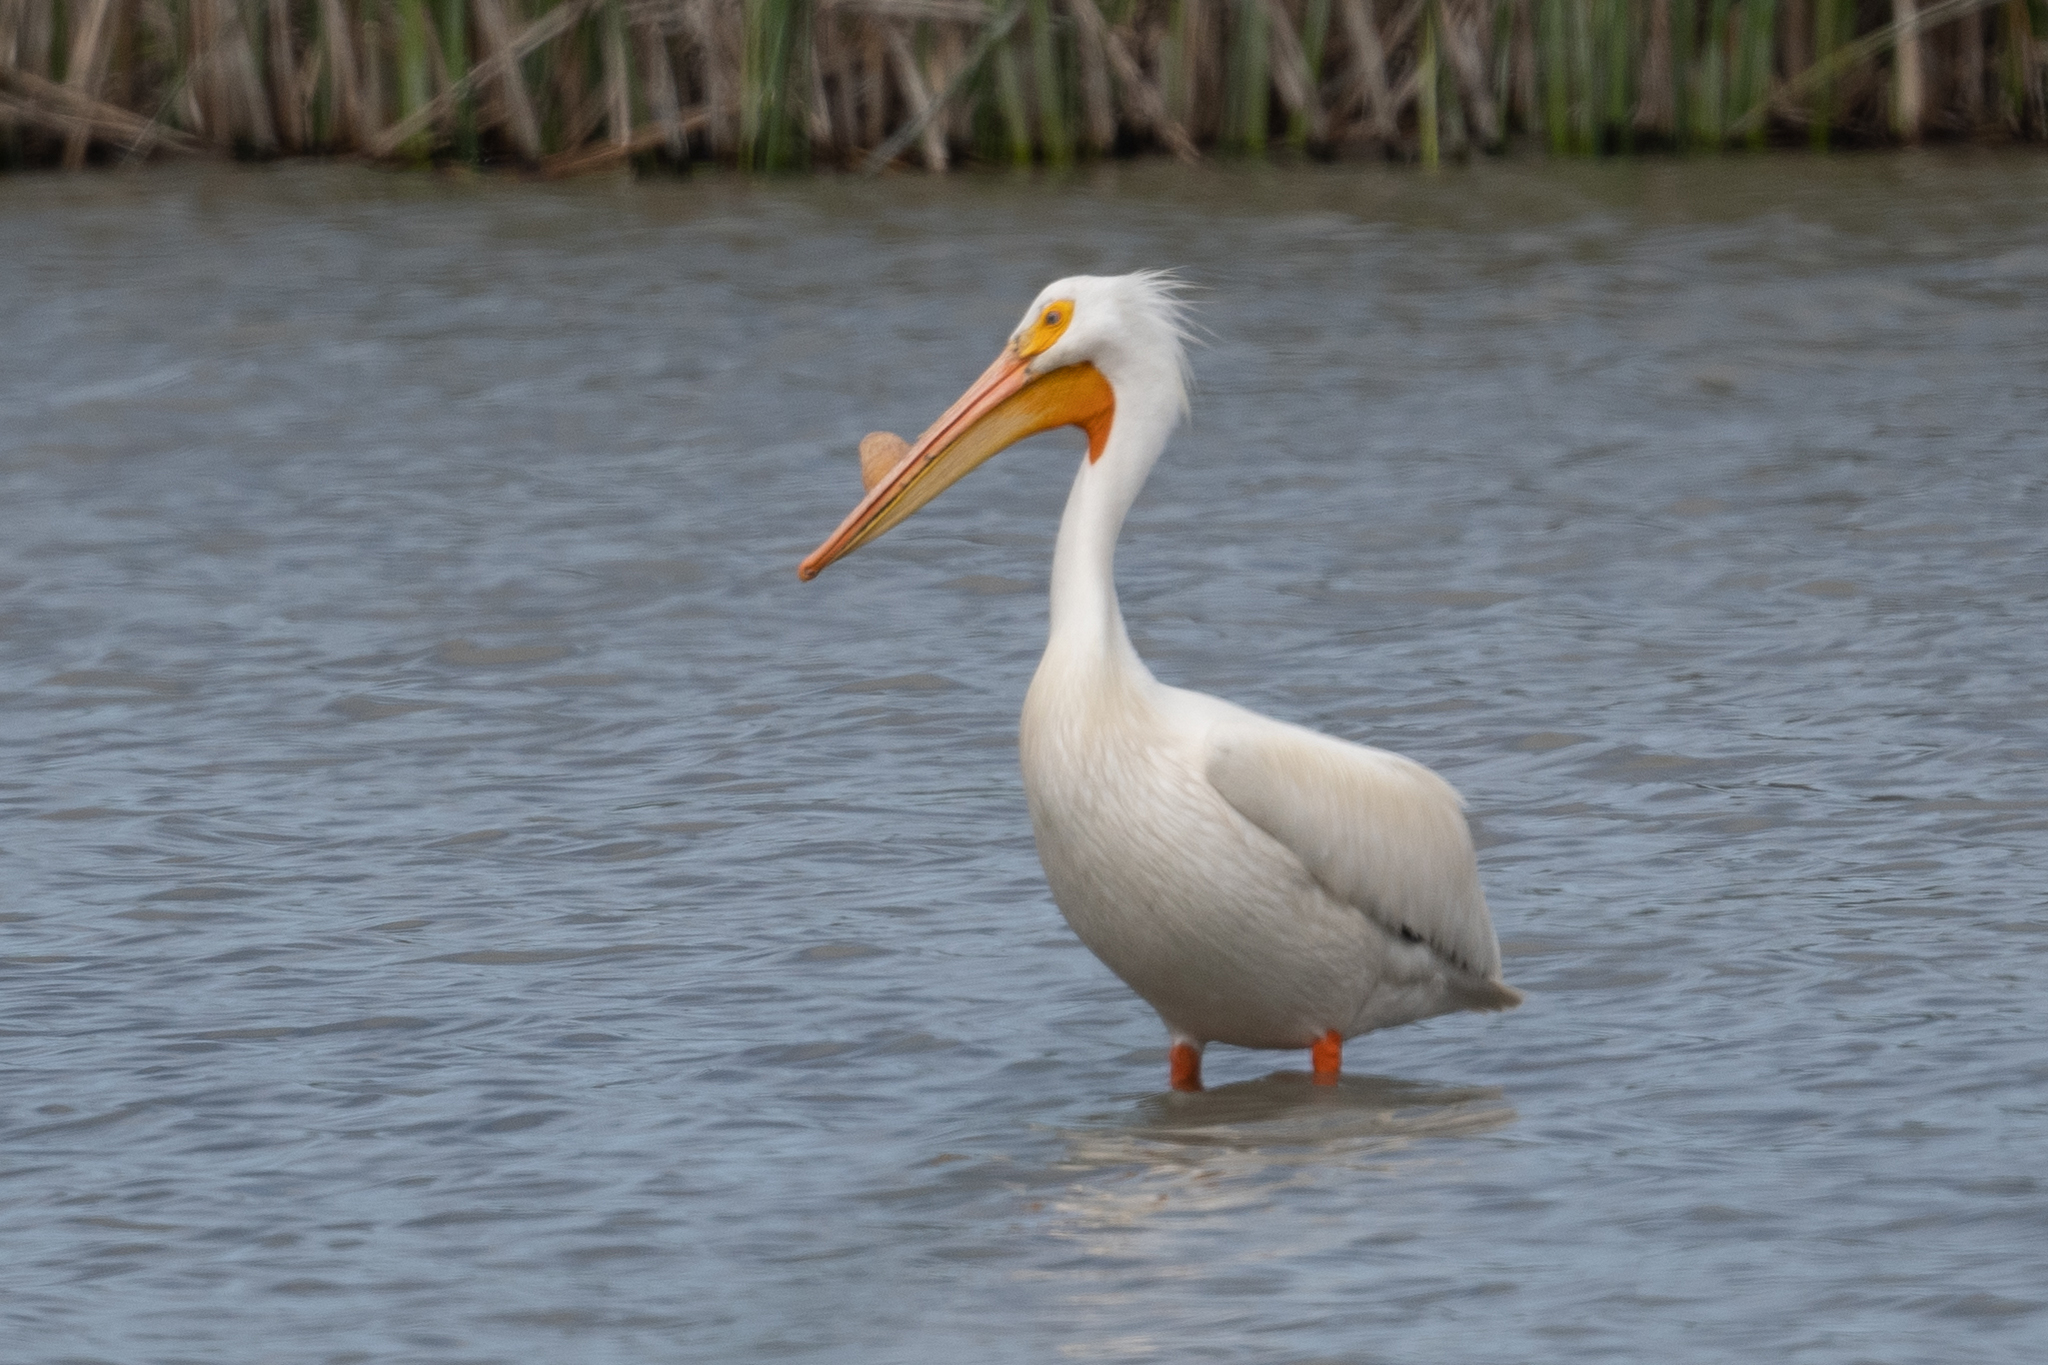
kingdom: Animalia
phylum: Chordata
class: Aves
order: Pelecaniformes
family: Pelecanidae
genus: Pelecanus
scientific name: Pelecanus erythrorhynchos
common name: American white pelican
